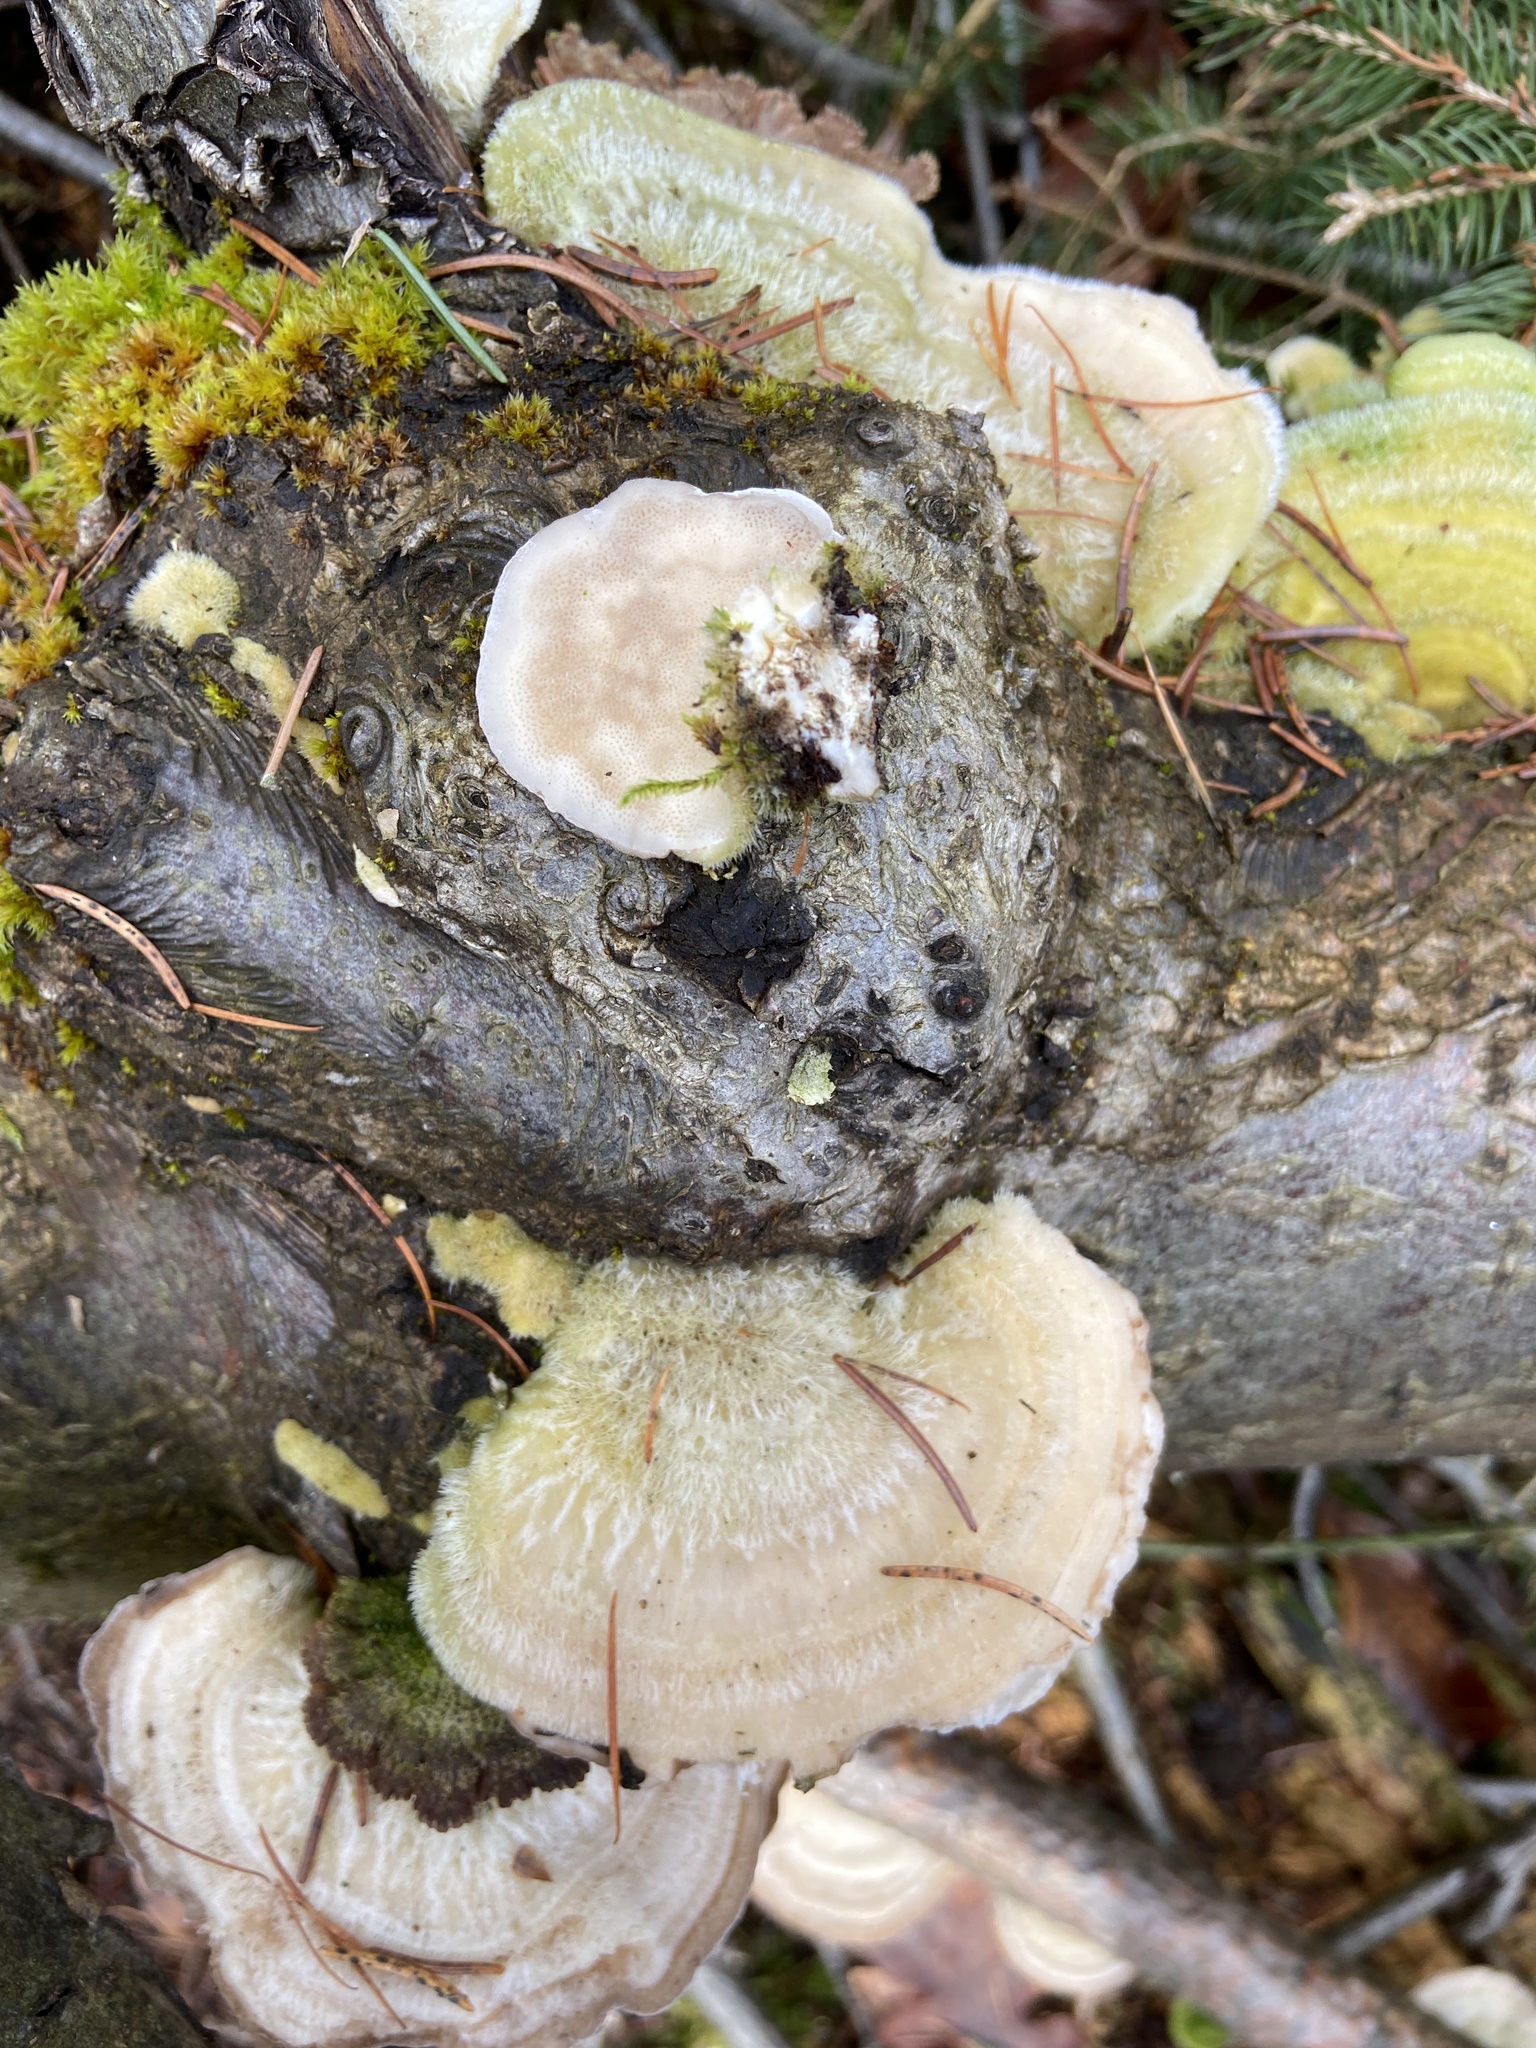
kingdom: Fungi
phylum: Basidiomycota
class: Agaricomycetes
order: Polyporales
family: Polyporaceae
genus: Trametes
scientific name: Trametes hirsuta
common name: Hairy bracket
